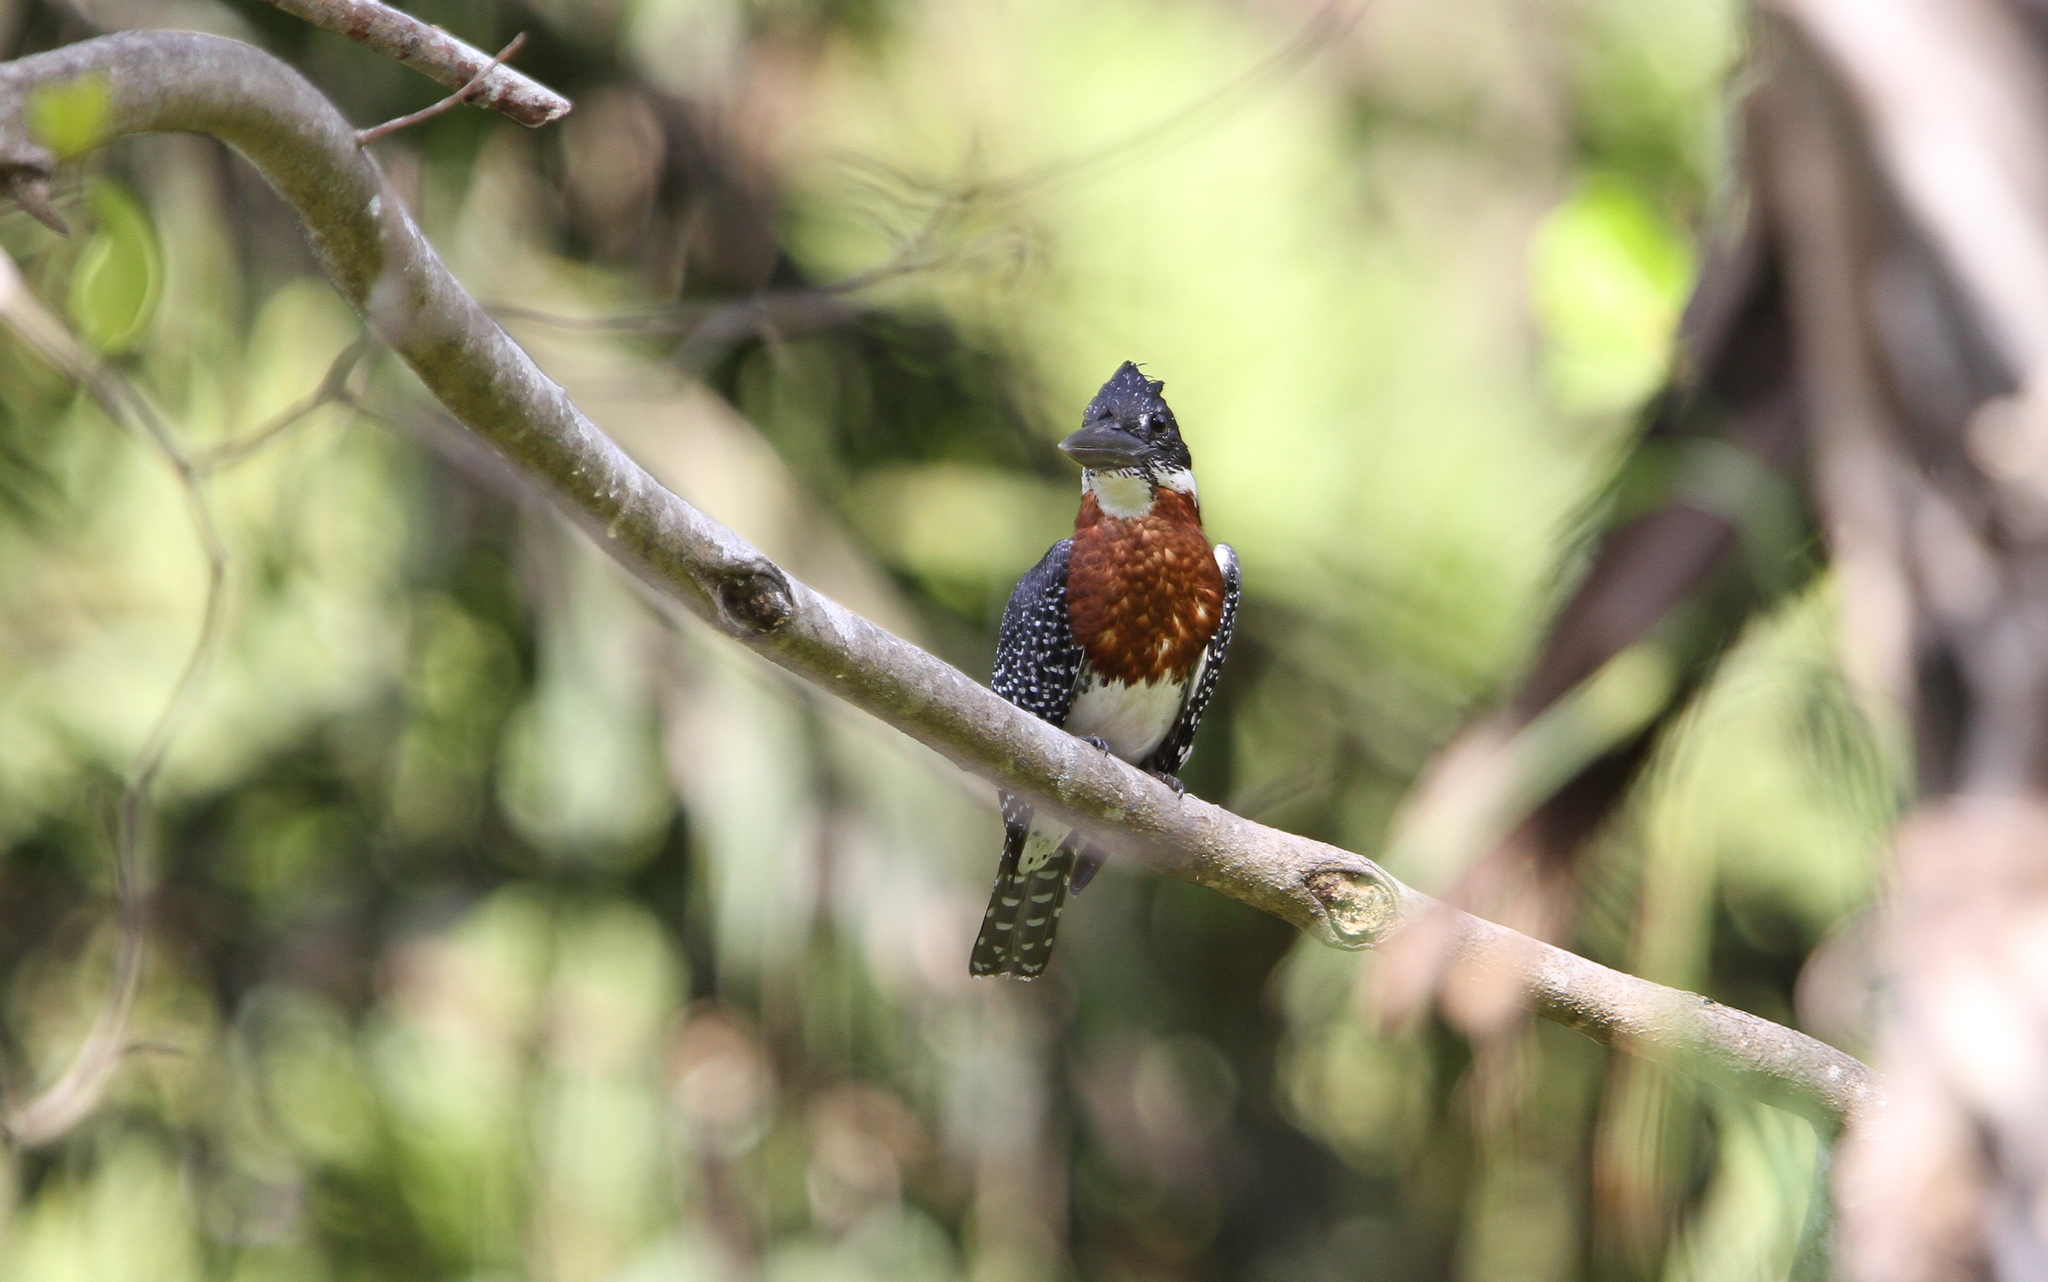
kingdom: Animalia
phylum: Chordata
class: Aves
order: Coraciiformes
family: Alcedinidae
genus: Megaceryle
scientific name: Megaceryle maxima
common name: Giant kingfisher
